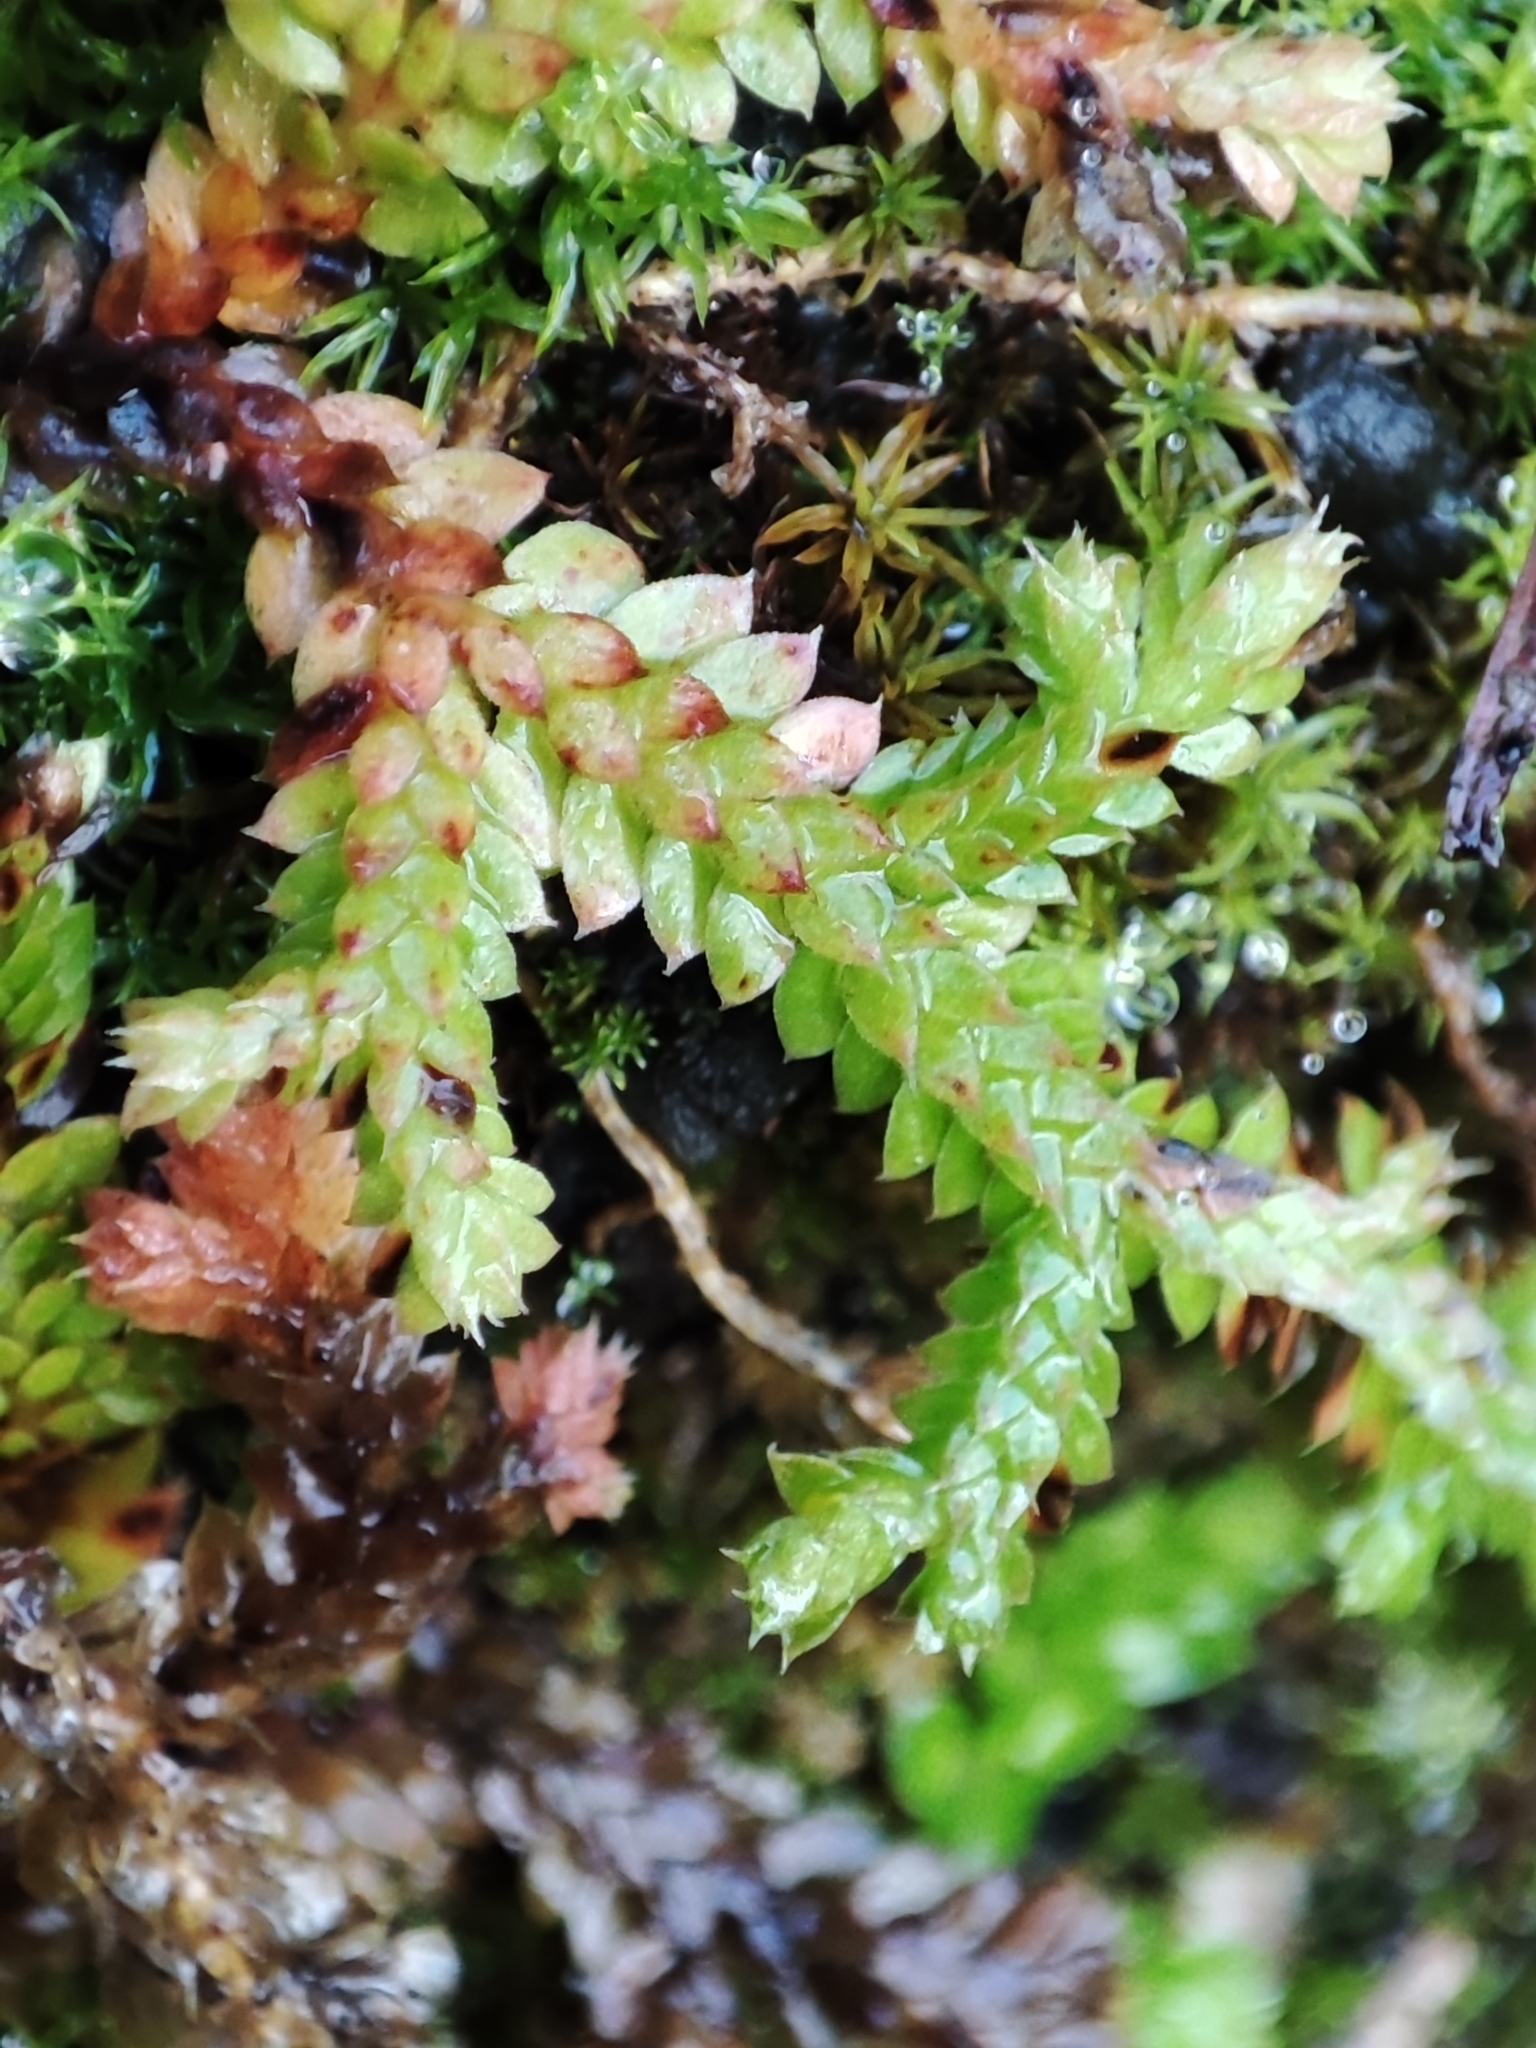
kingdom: Plantae
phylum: Tracheophyta
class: Lycopodiopsida
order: Selaginellales
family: Selaginellaceae
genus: Selaginella
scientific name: Selaginella denticulata
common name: Toothed-leaved clubmoss
